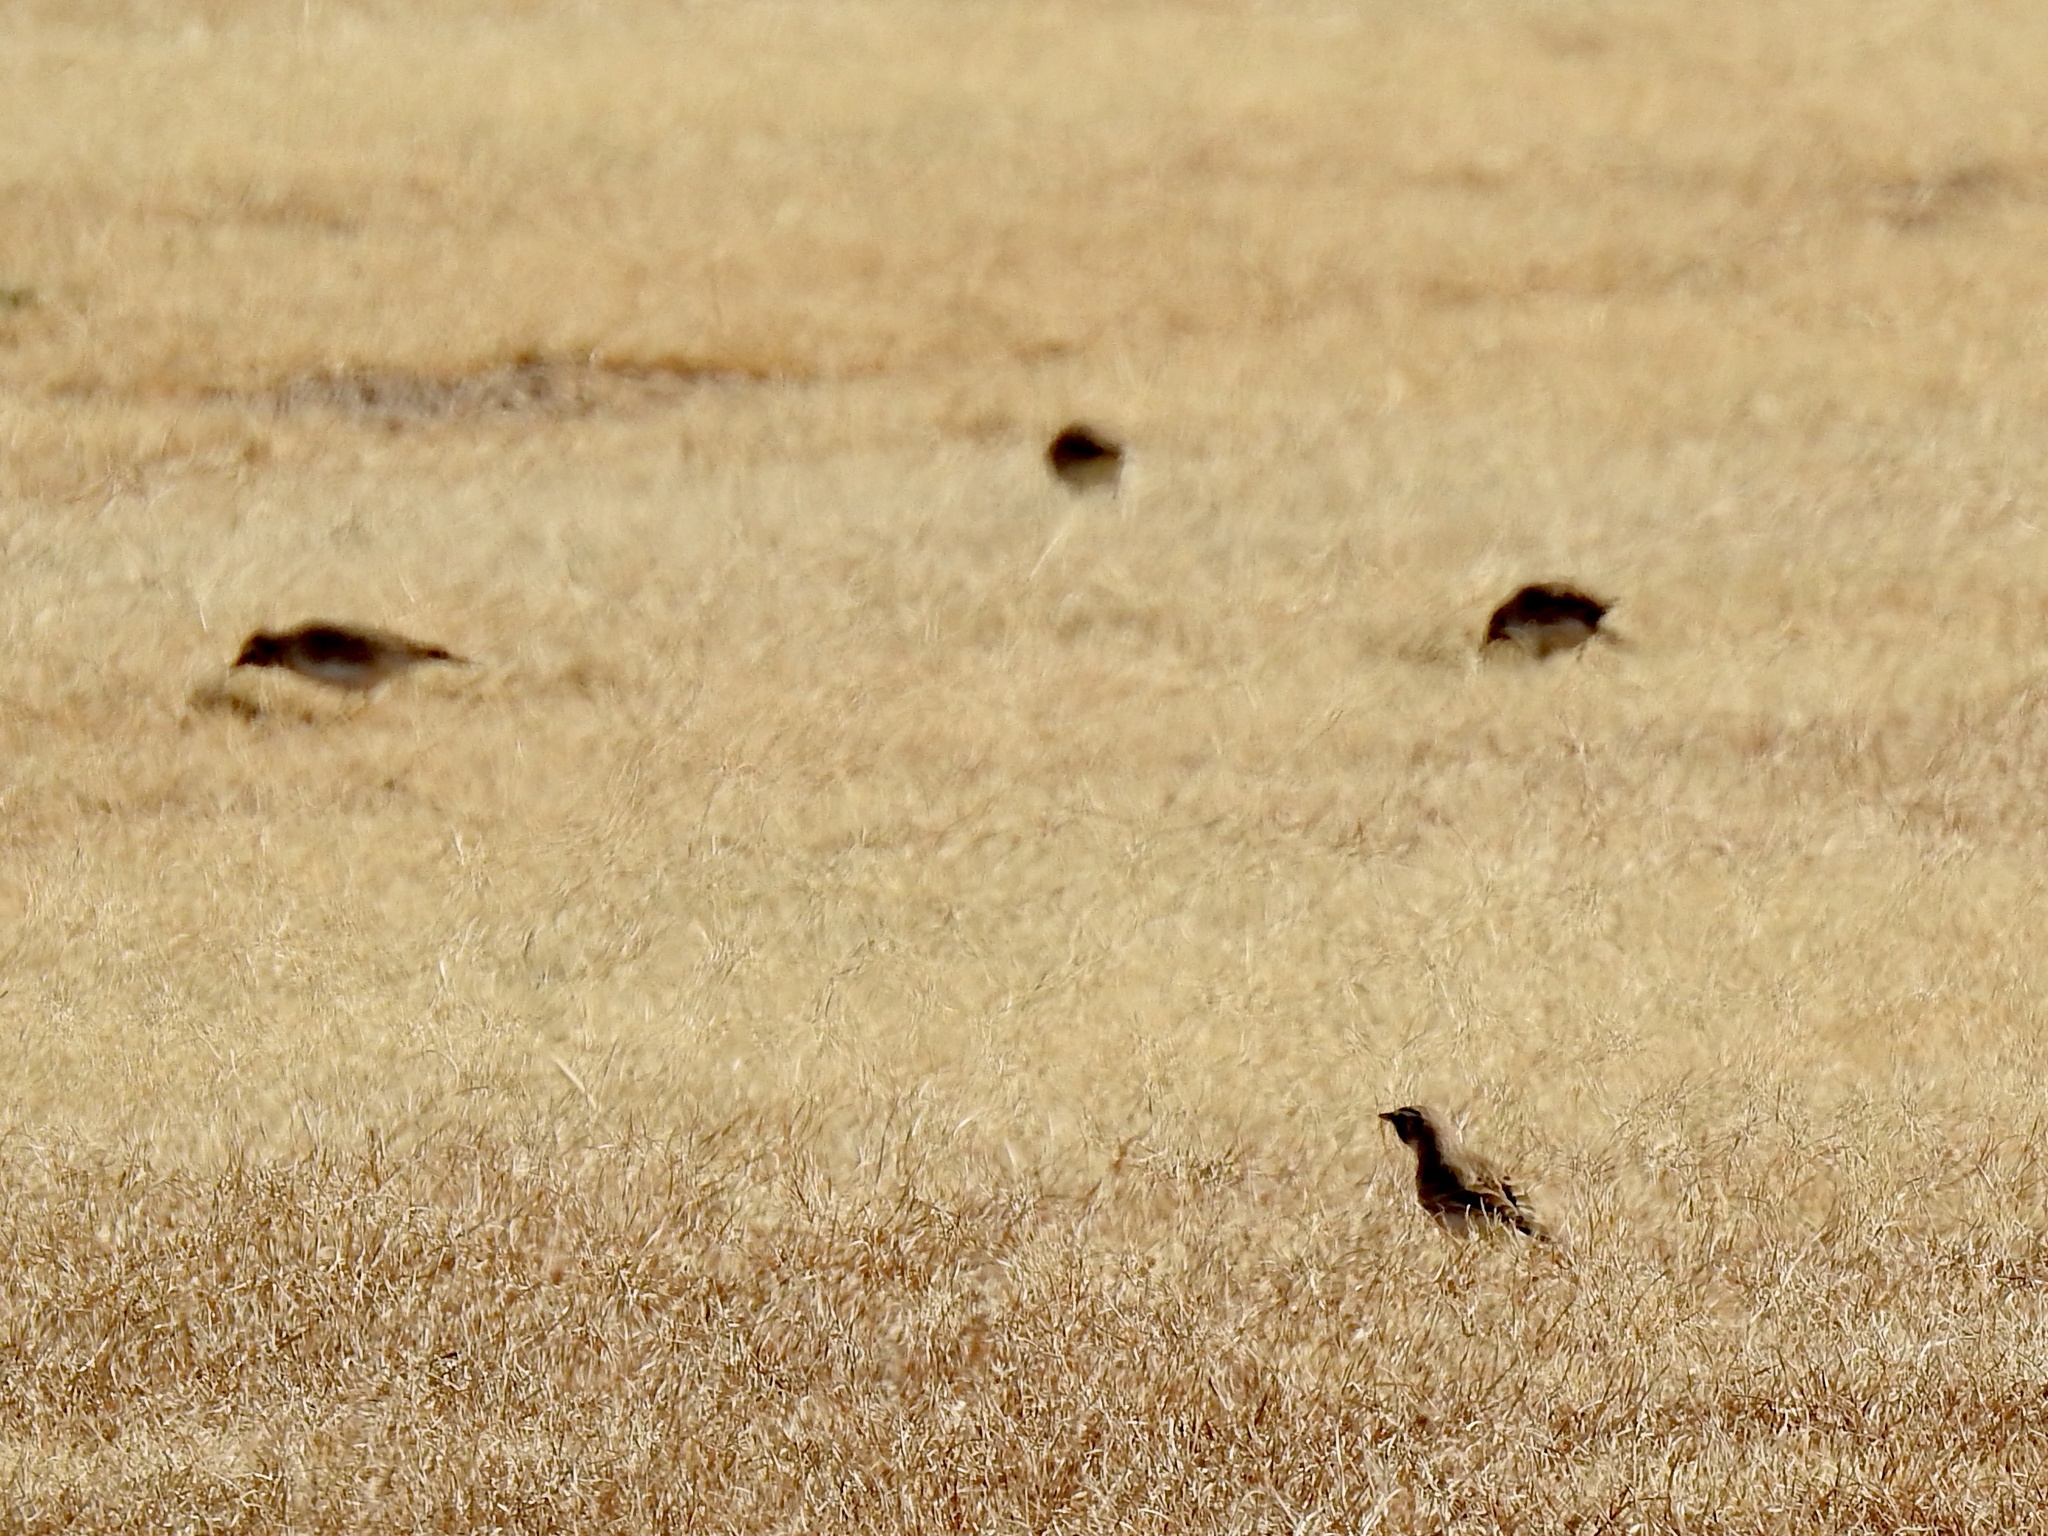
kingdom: Animalia
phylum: Chordata
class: Aves
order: Passeriformes
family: Alaudidae
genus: Eremophila
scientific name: Eremophila alpestris
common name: Horned lark
